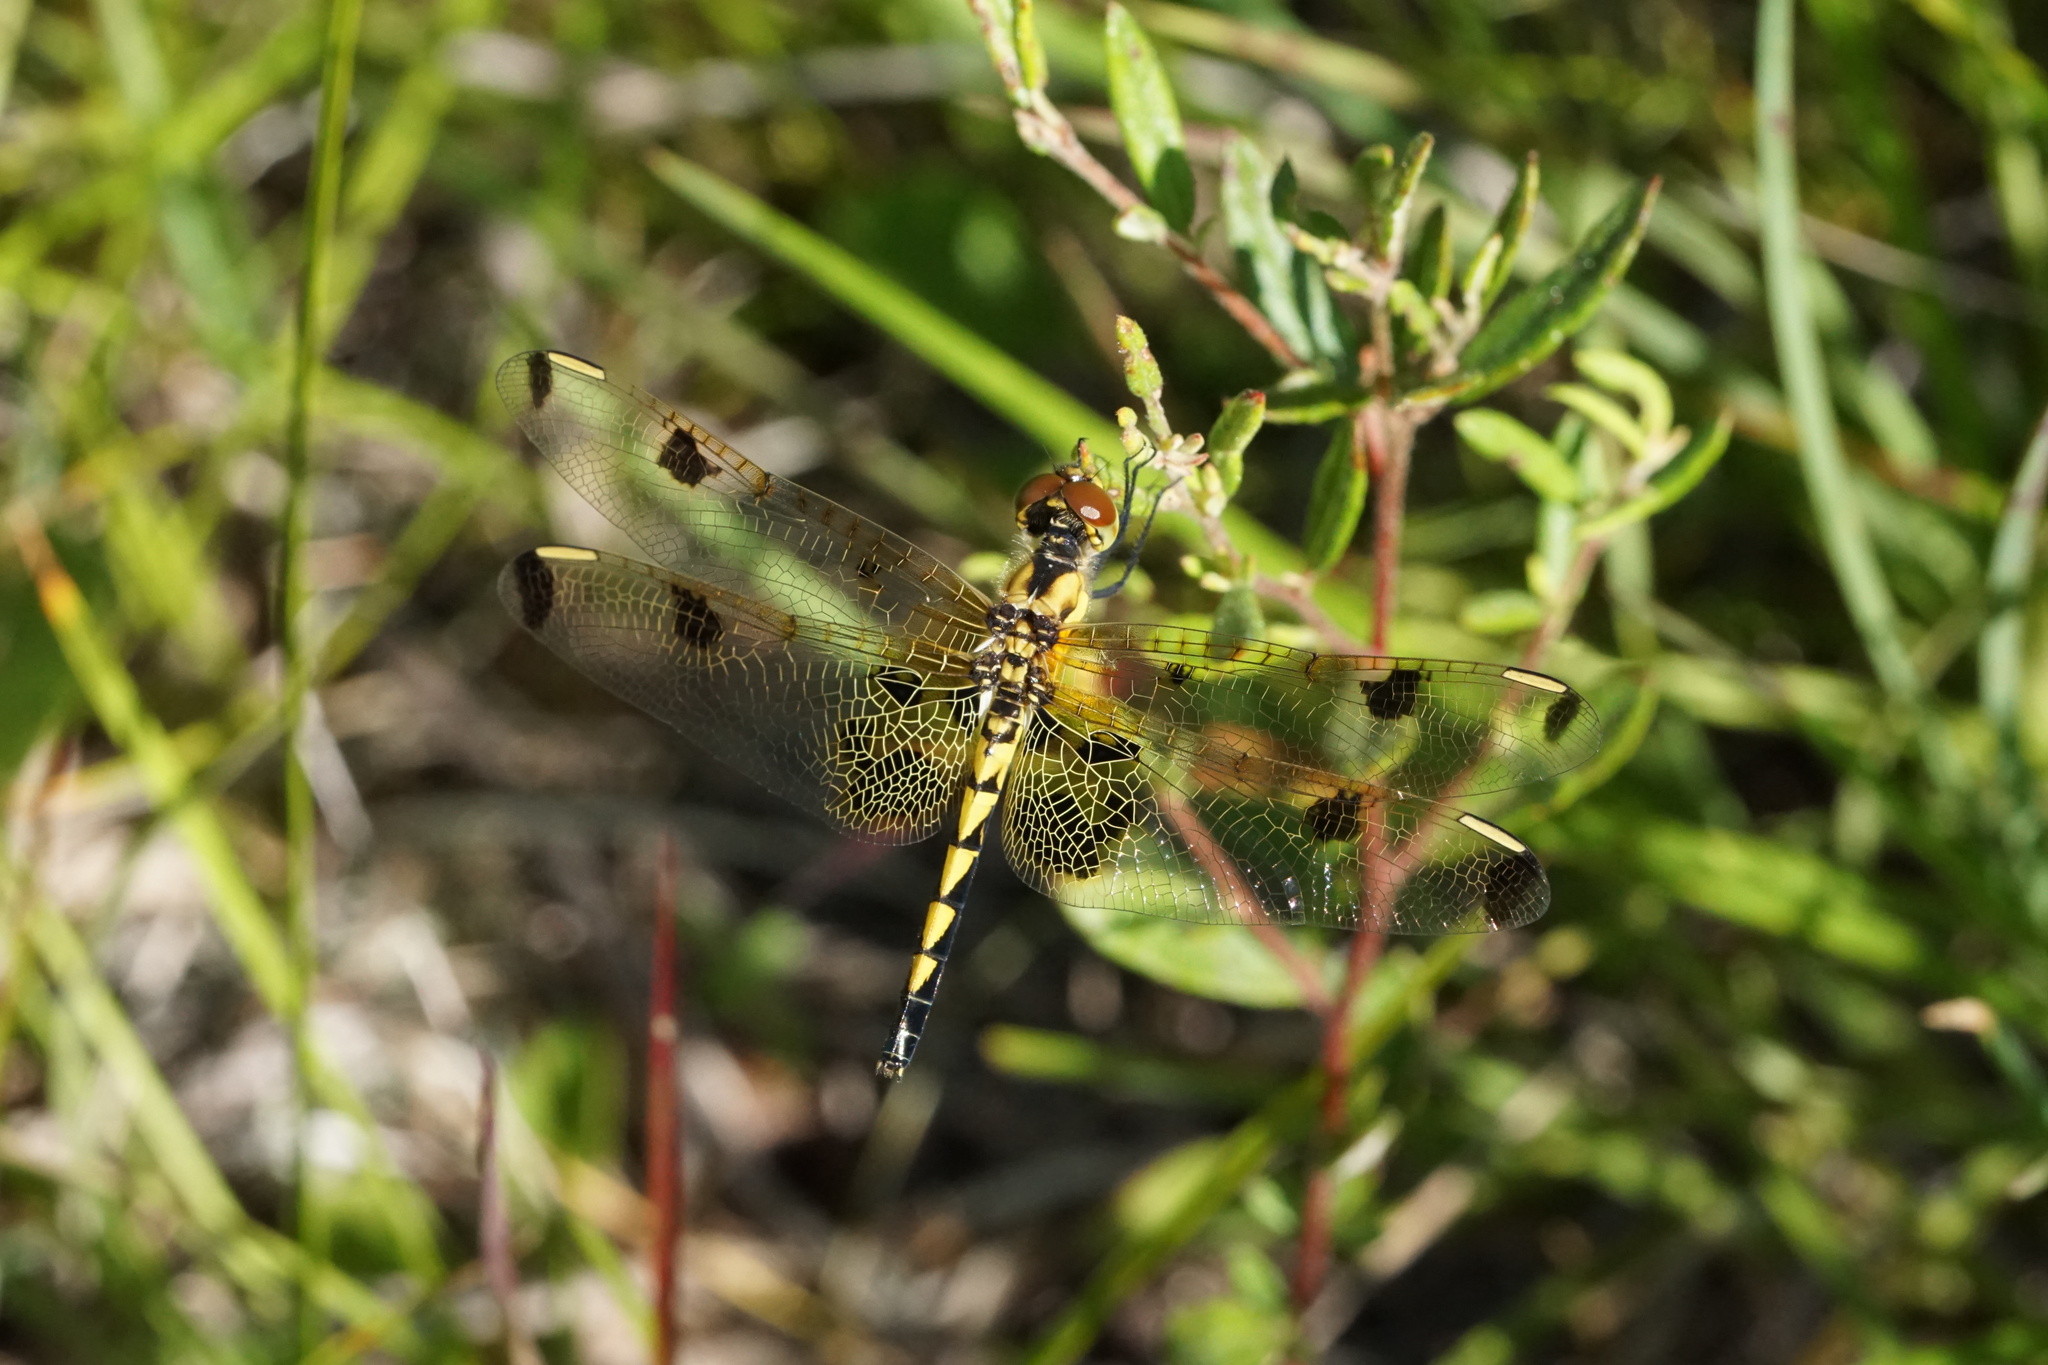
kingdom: Animalia
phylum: Arthropoda
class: Insecta
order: Odonata
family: Libellulidae
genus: Celithemis
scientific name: Celithemis elisa
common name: Calico pennant
